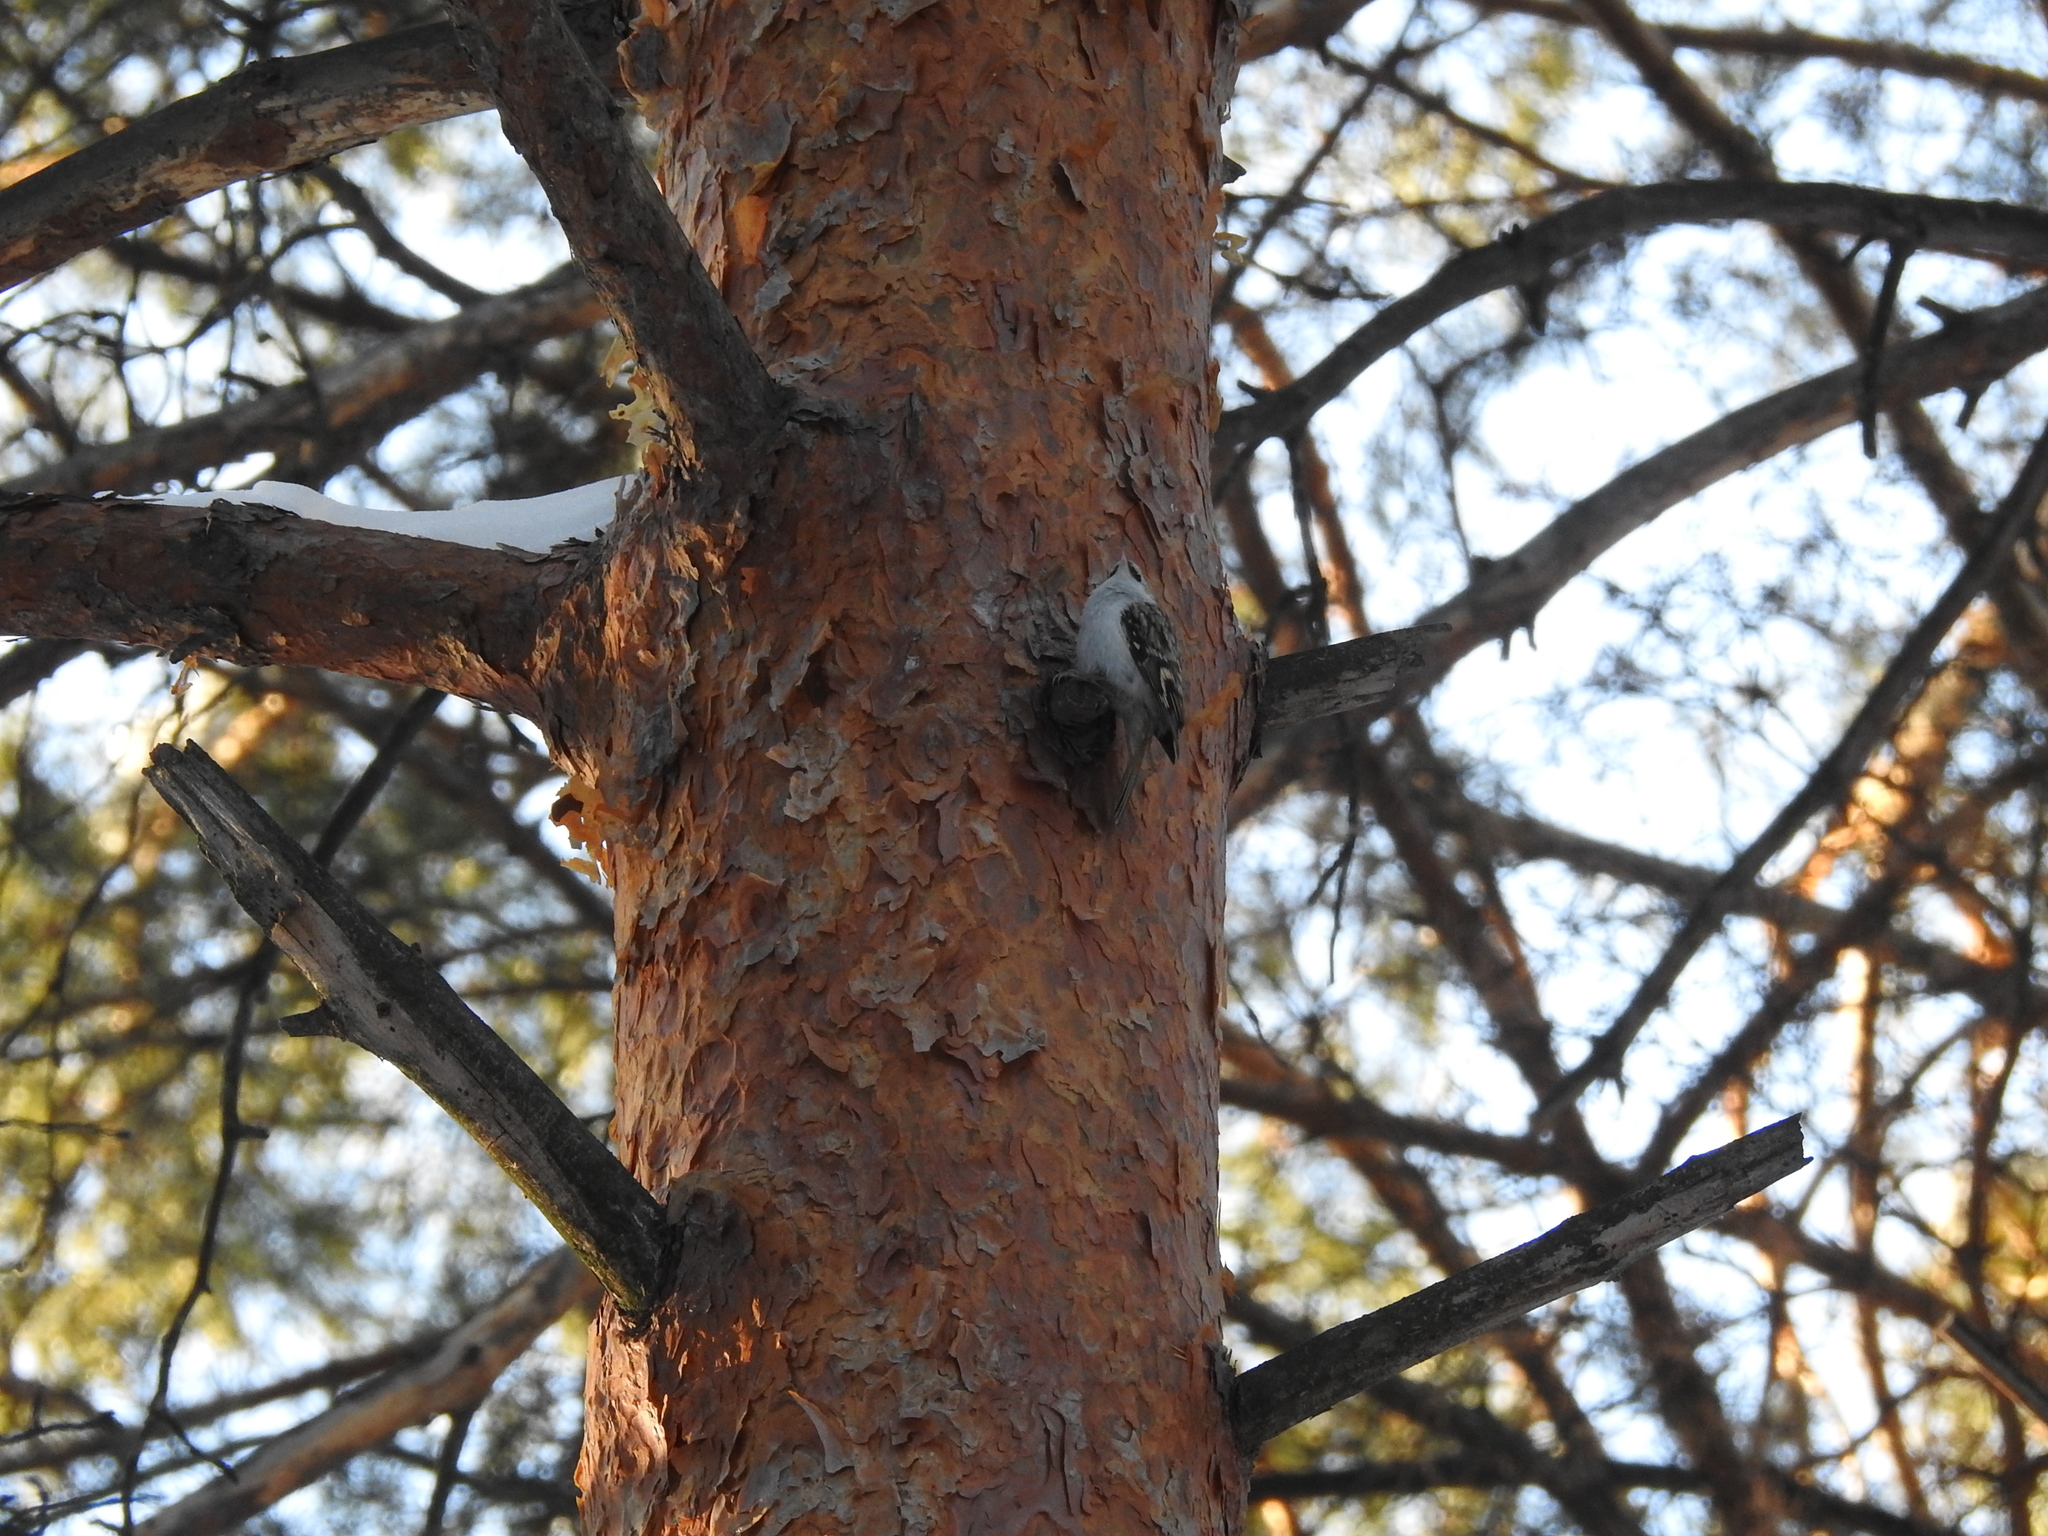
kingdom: Animalia
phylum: Chordata
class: Aves
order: Passeriformes
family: Certhiidae
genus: Certhia
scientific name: Certhia familiaris
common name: Eurasian treecreeper
